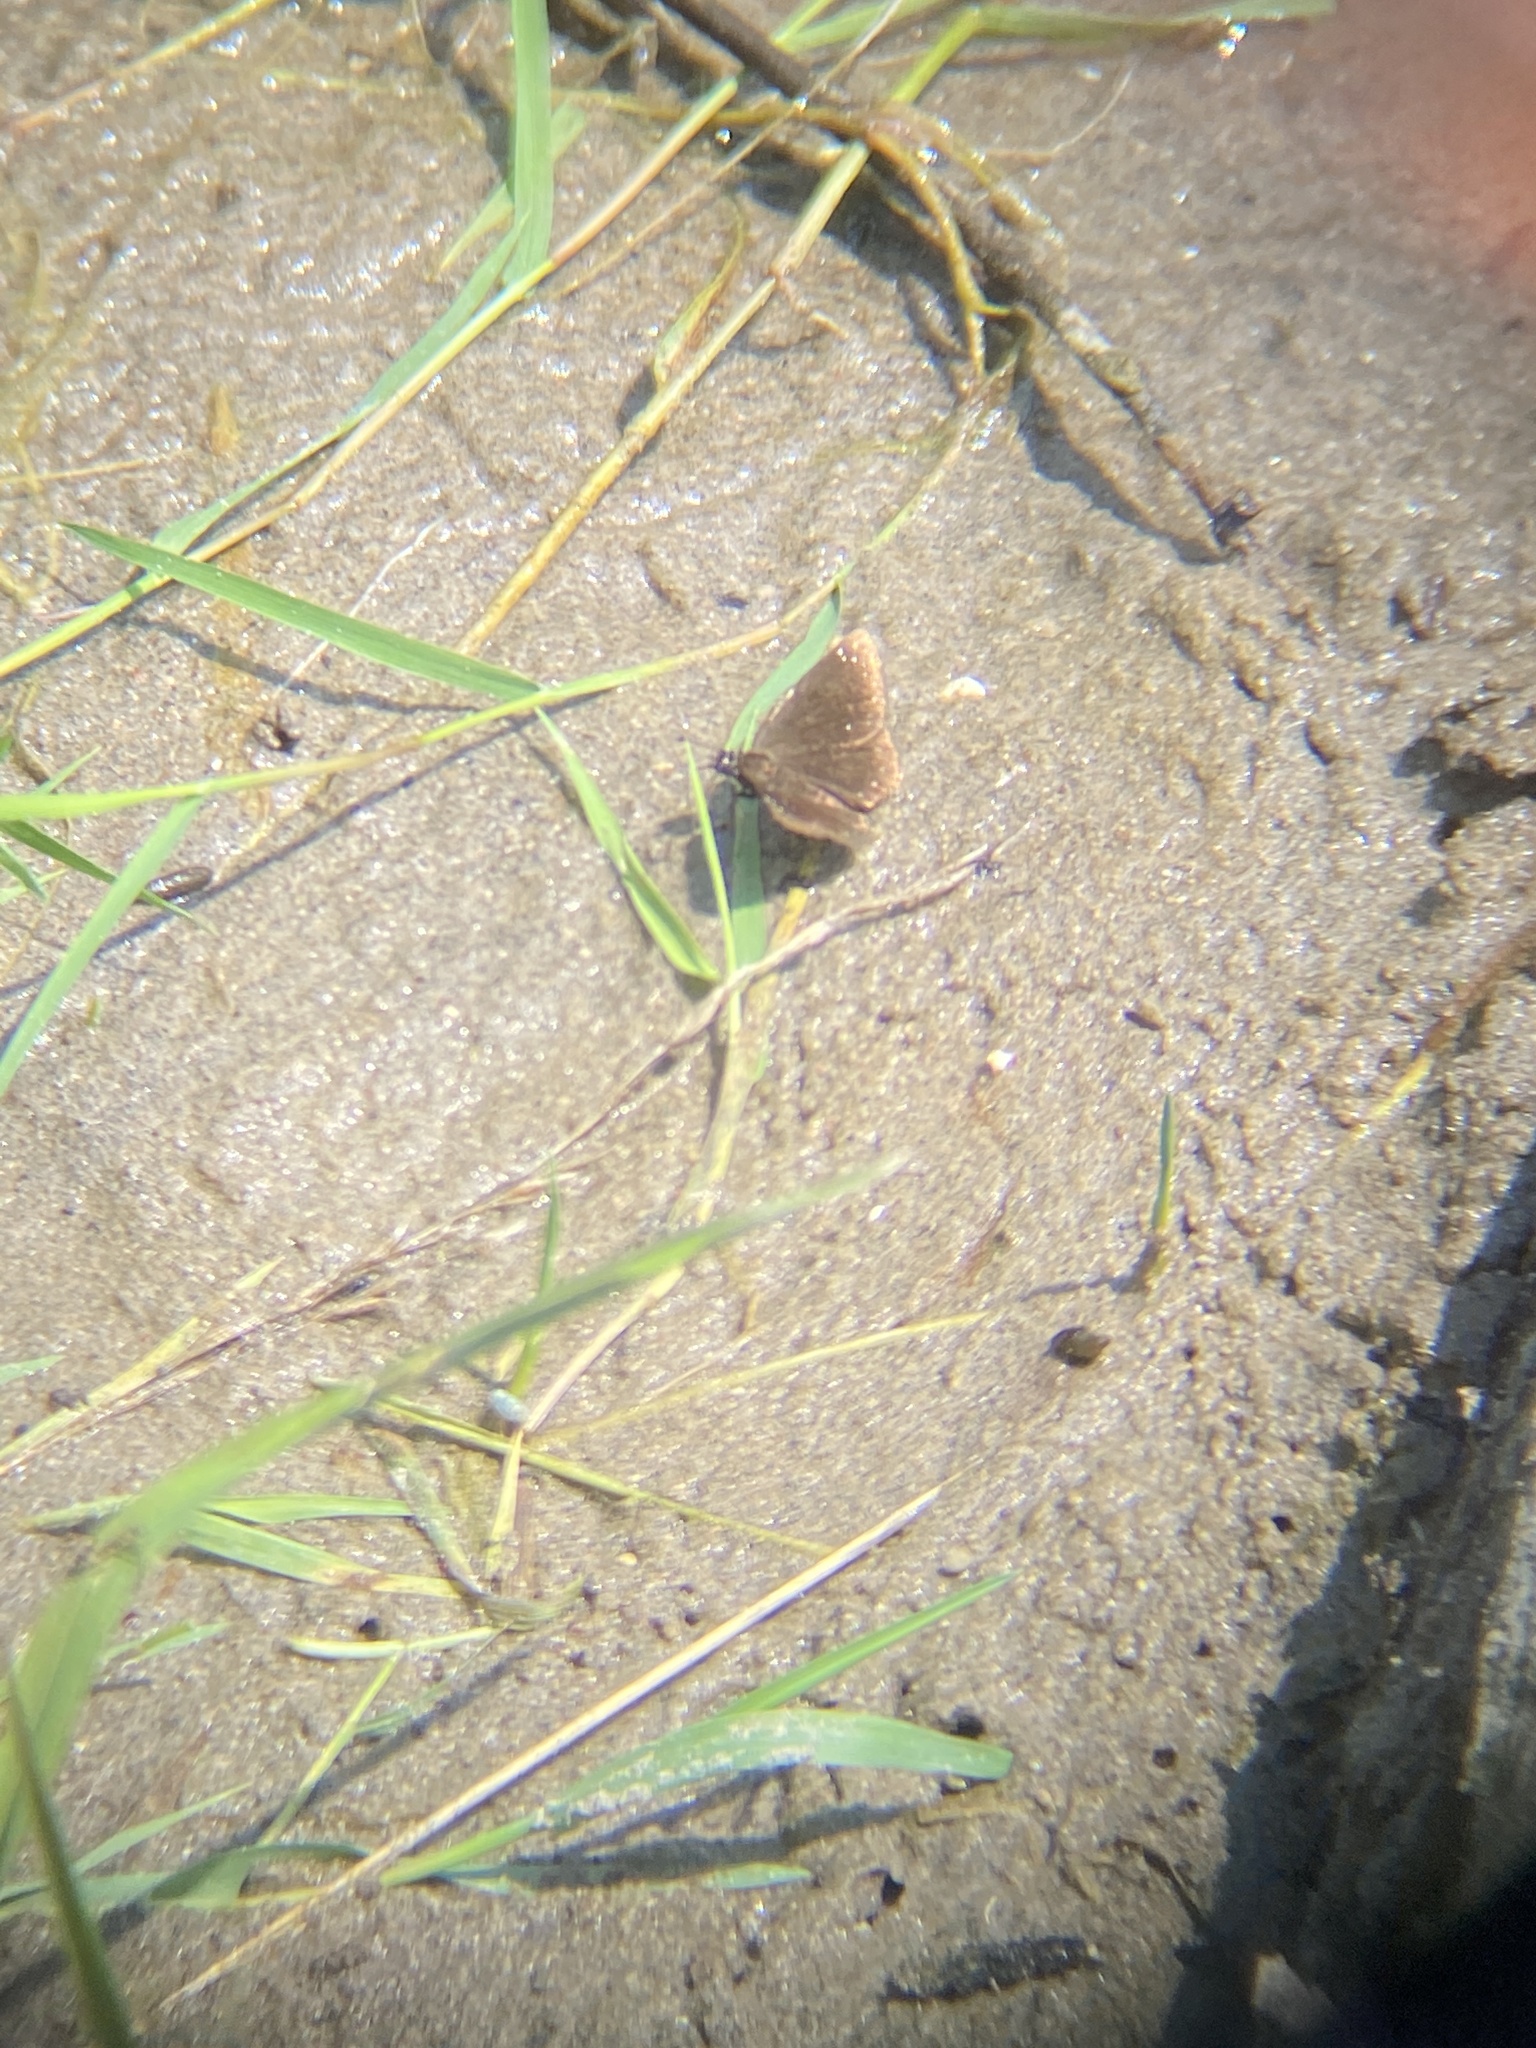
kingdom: Animalia
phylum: Arthropoda
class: Insecta
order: Lepidoptera
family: Hesperiidae
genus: Pholisora
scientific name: Pholisora catullus
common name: Common sootywing
